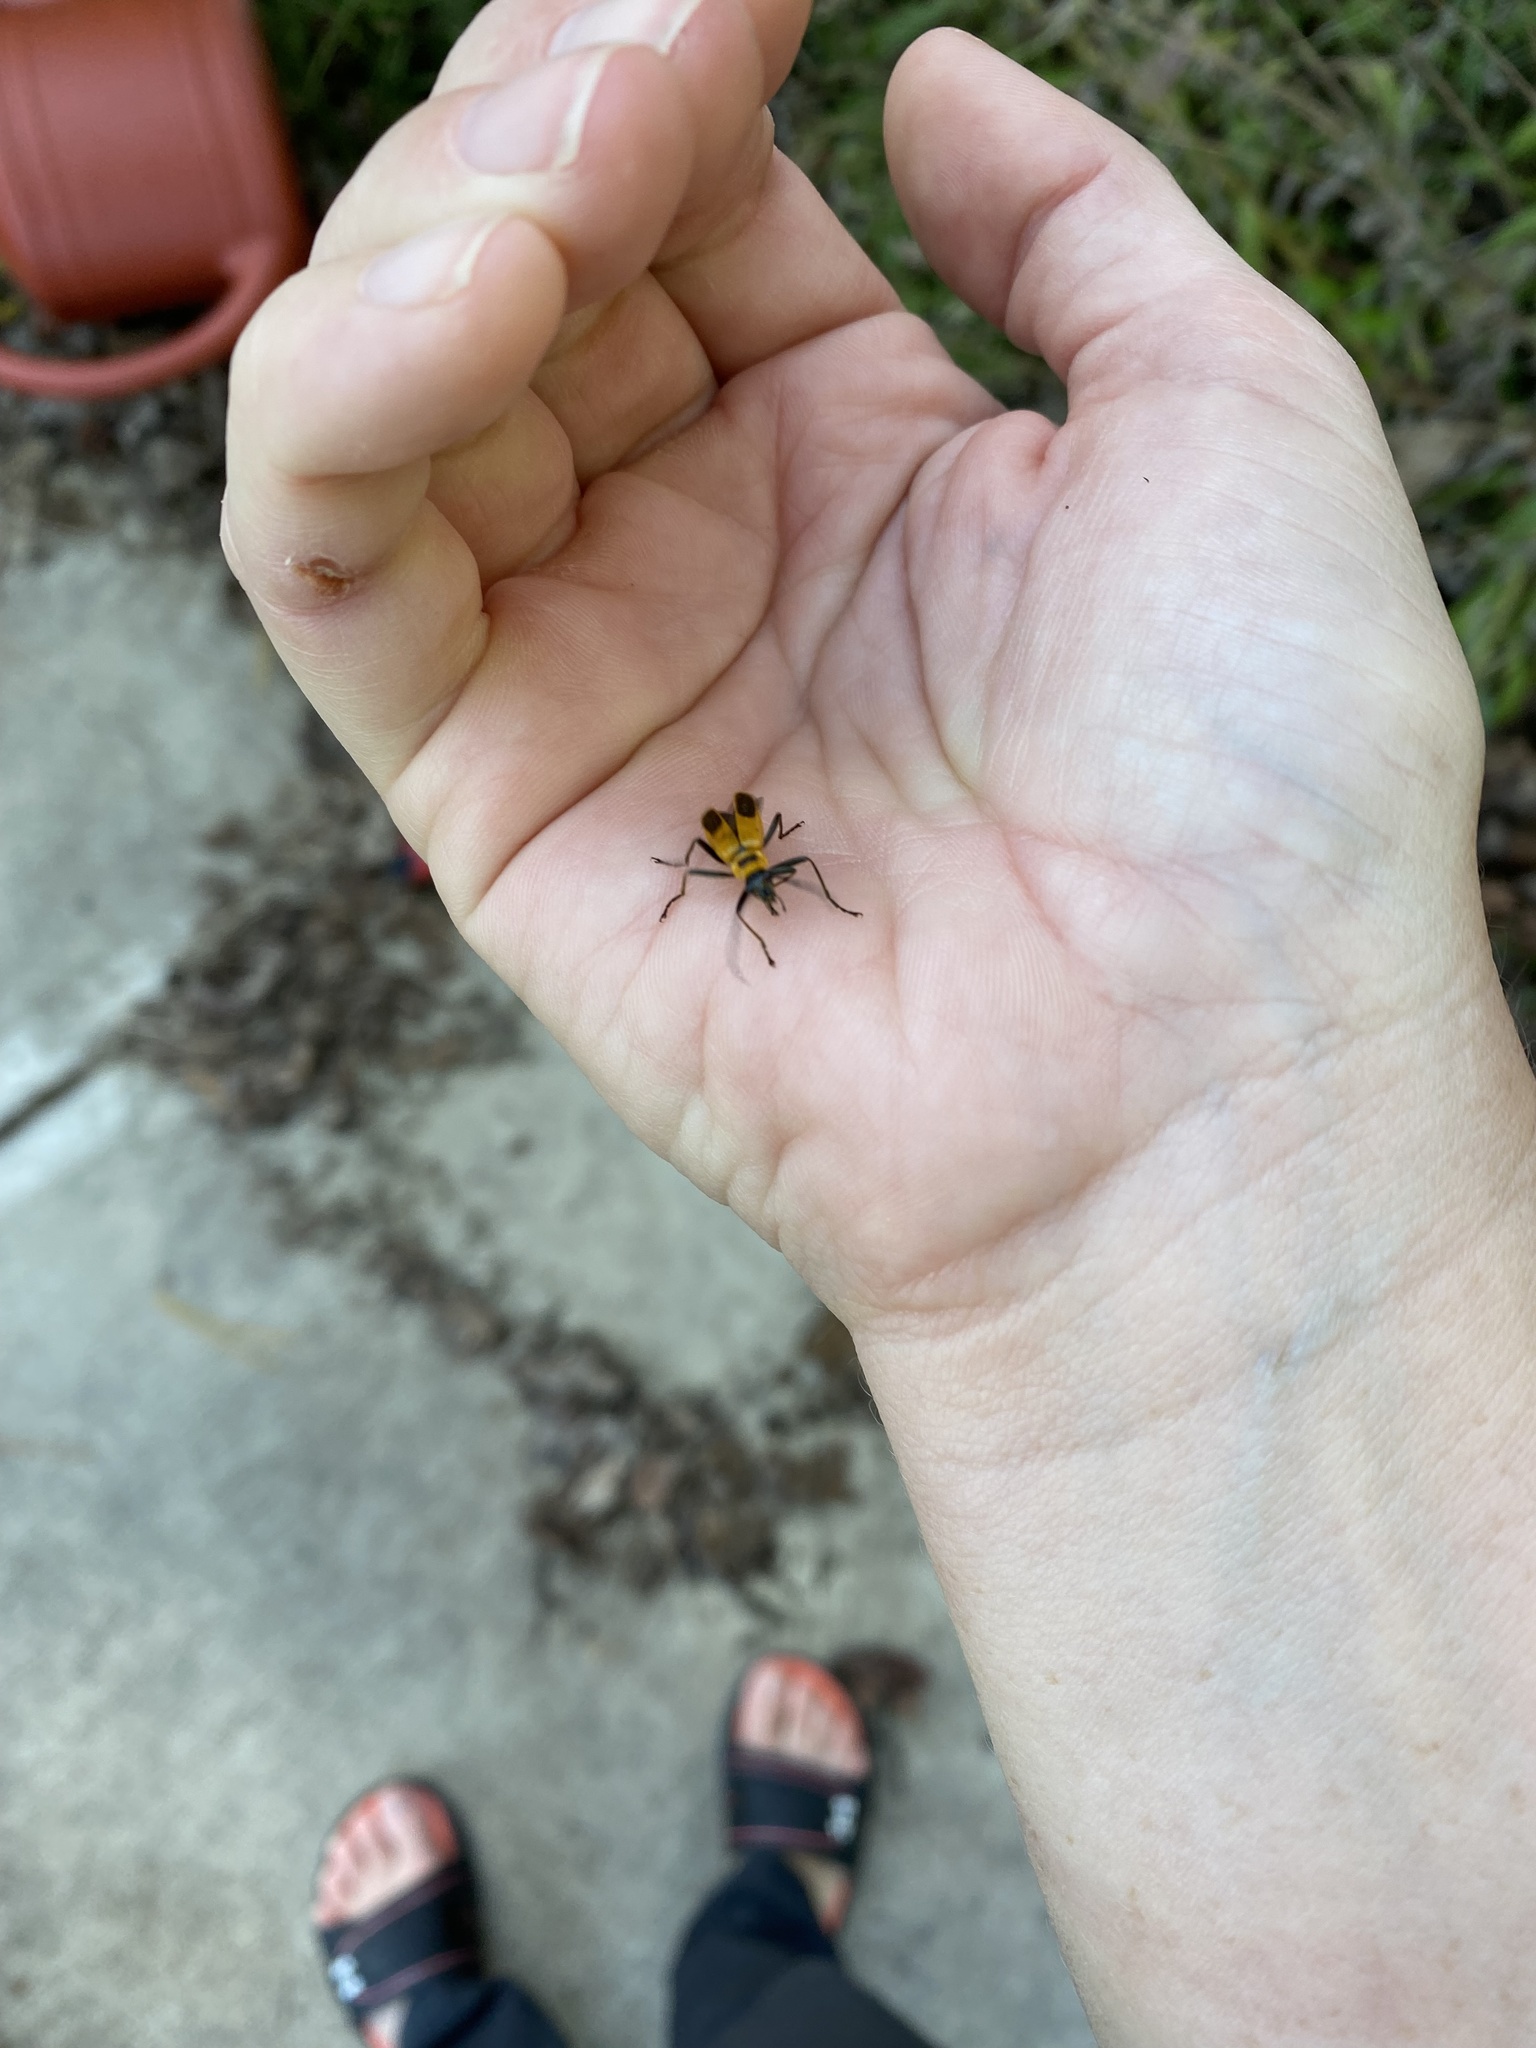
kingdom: Animalia
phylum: Arthropoda
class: Insecta
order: Coleoptera
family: Cantharidae
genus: Chauliognathus
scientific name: Chauliognathus pensylvanicus
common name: Goldenrod soldier beetle
